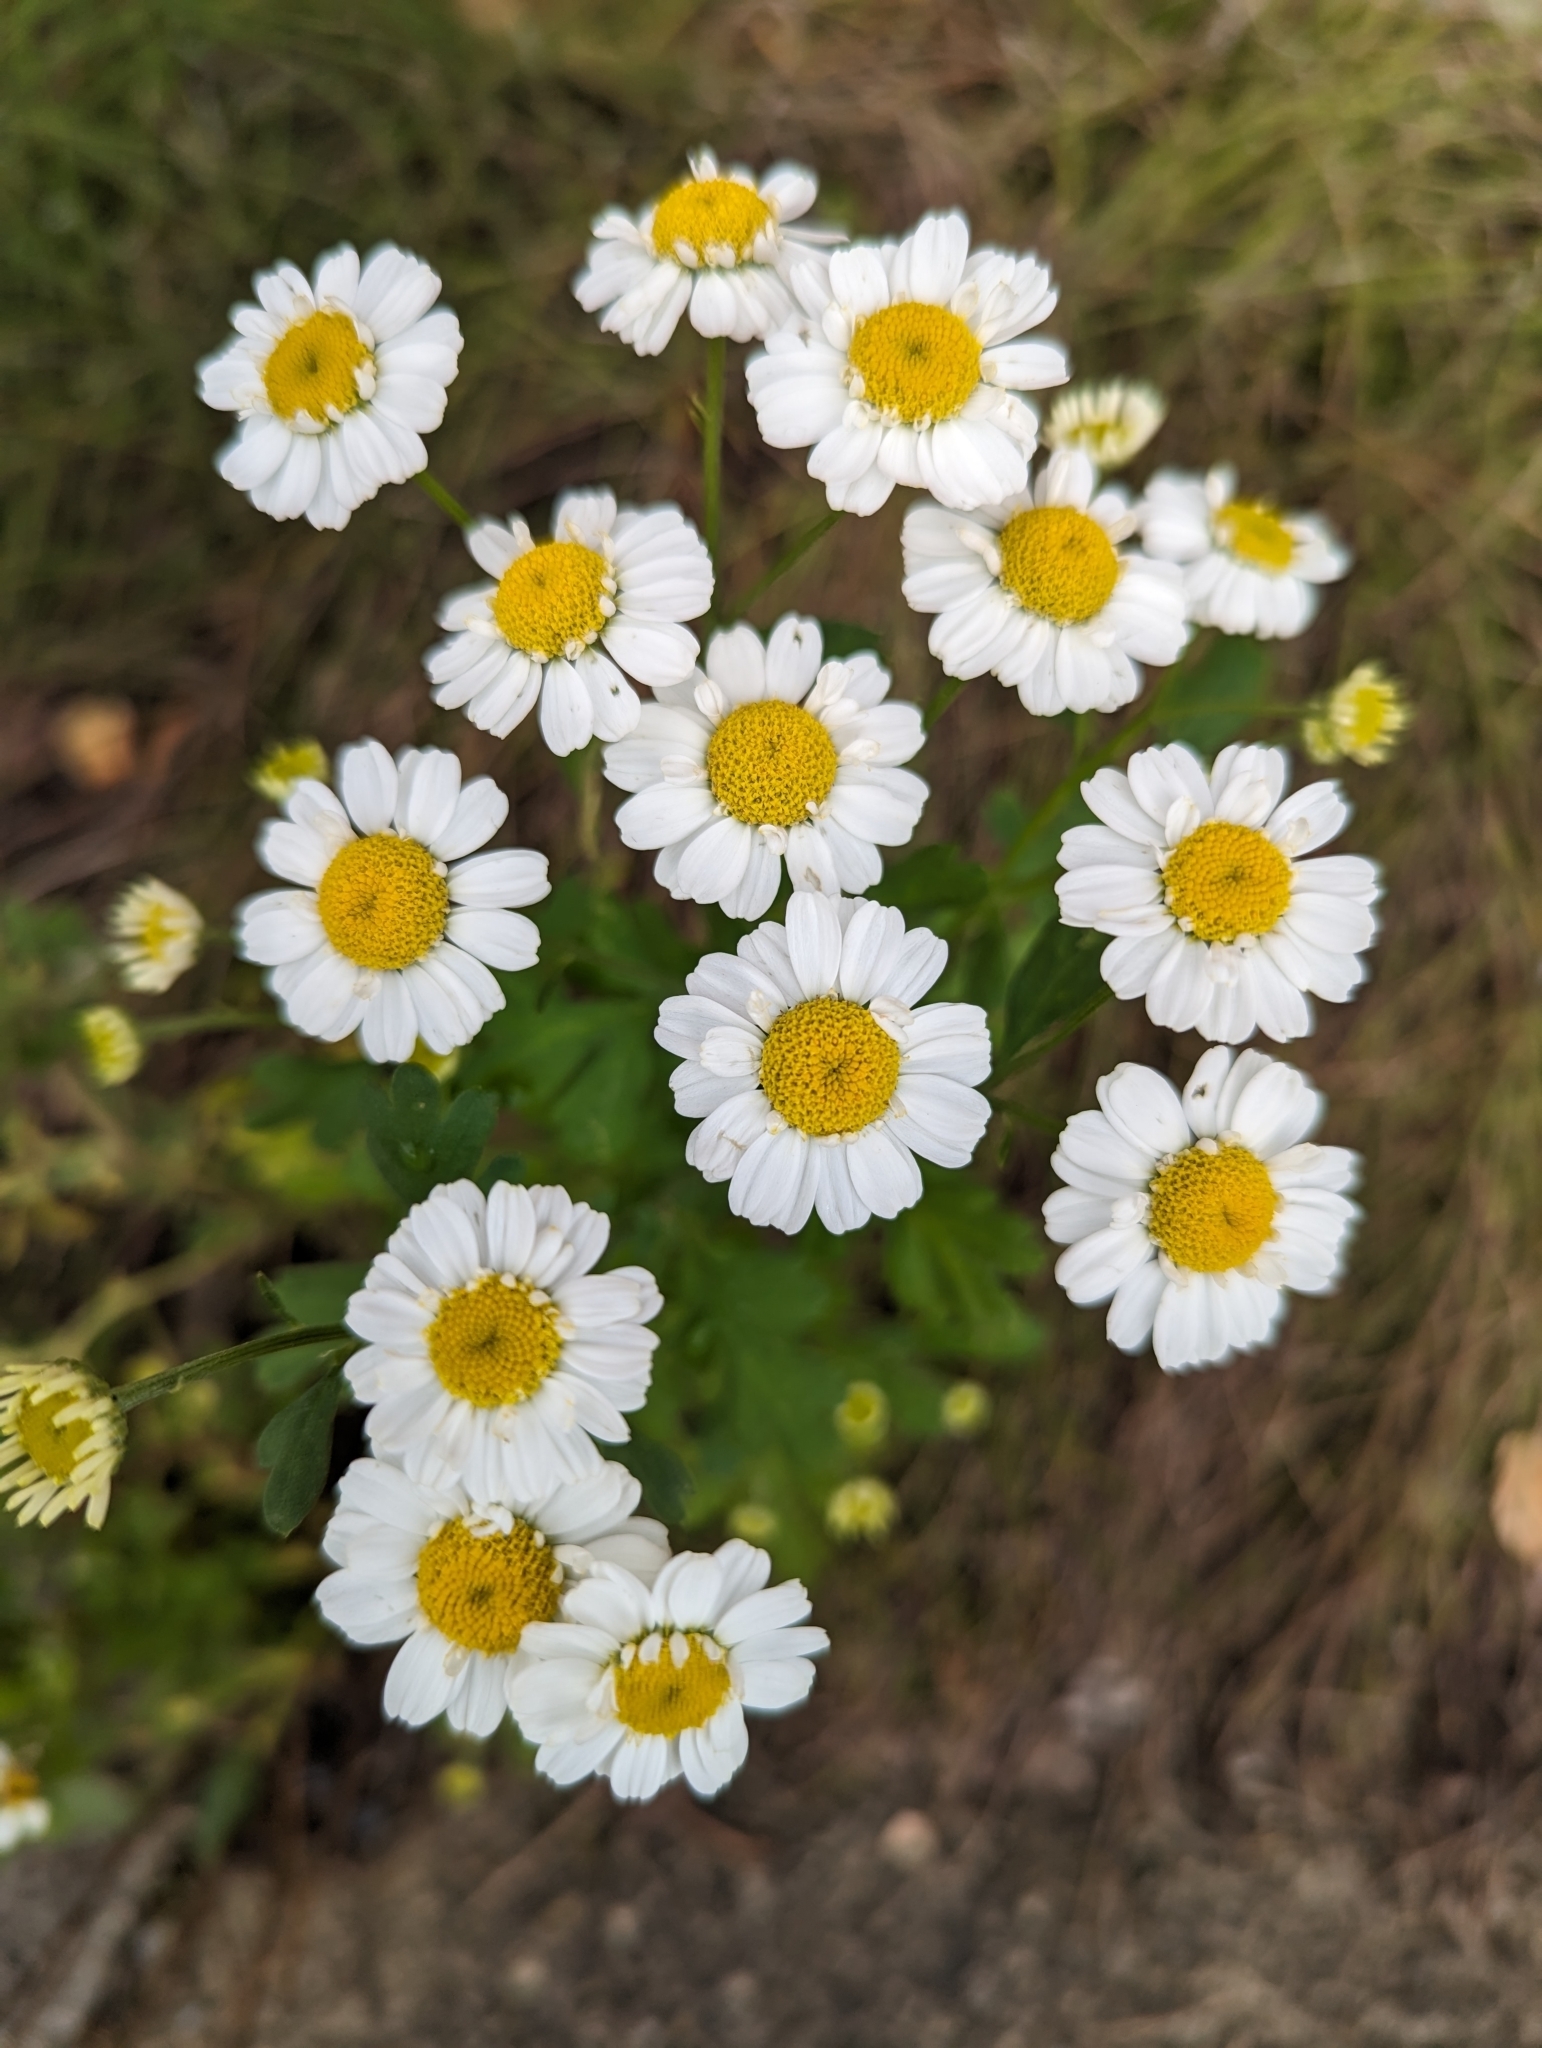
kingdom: Plantae
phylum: Tracheophyta
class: Magnoliopsida
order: Asterales
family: Asteraceae
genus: Tanacetum
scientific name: Tanacetum parthenium
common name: Feverfew
